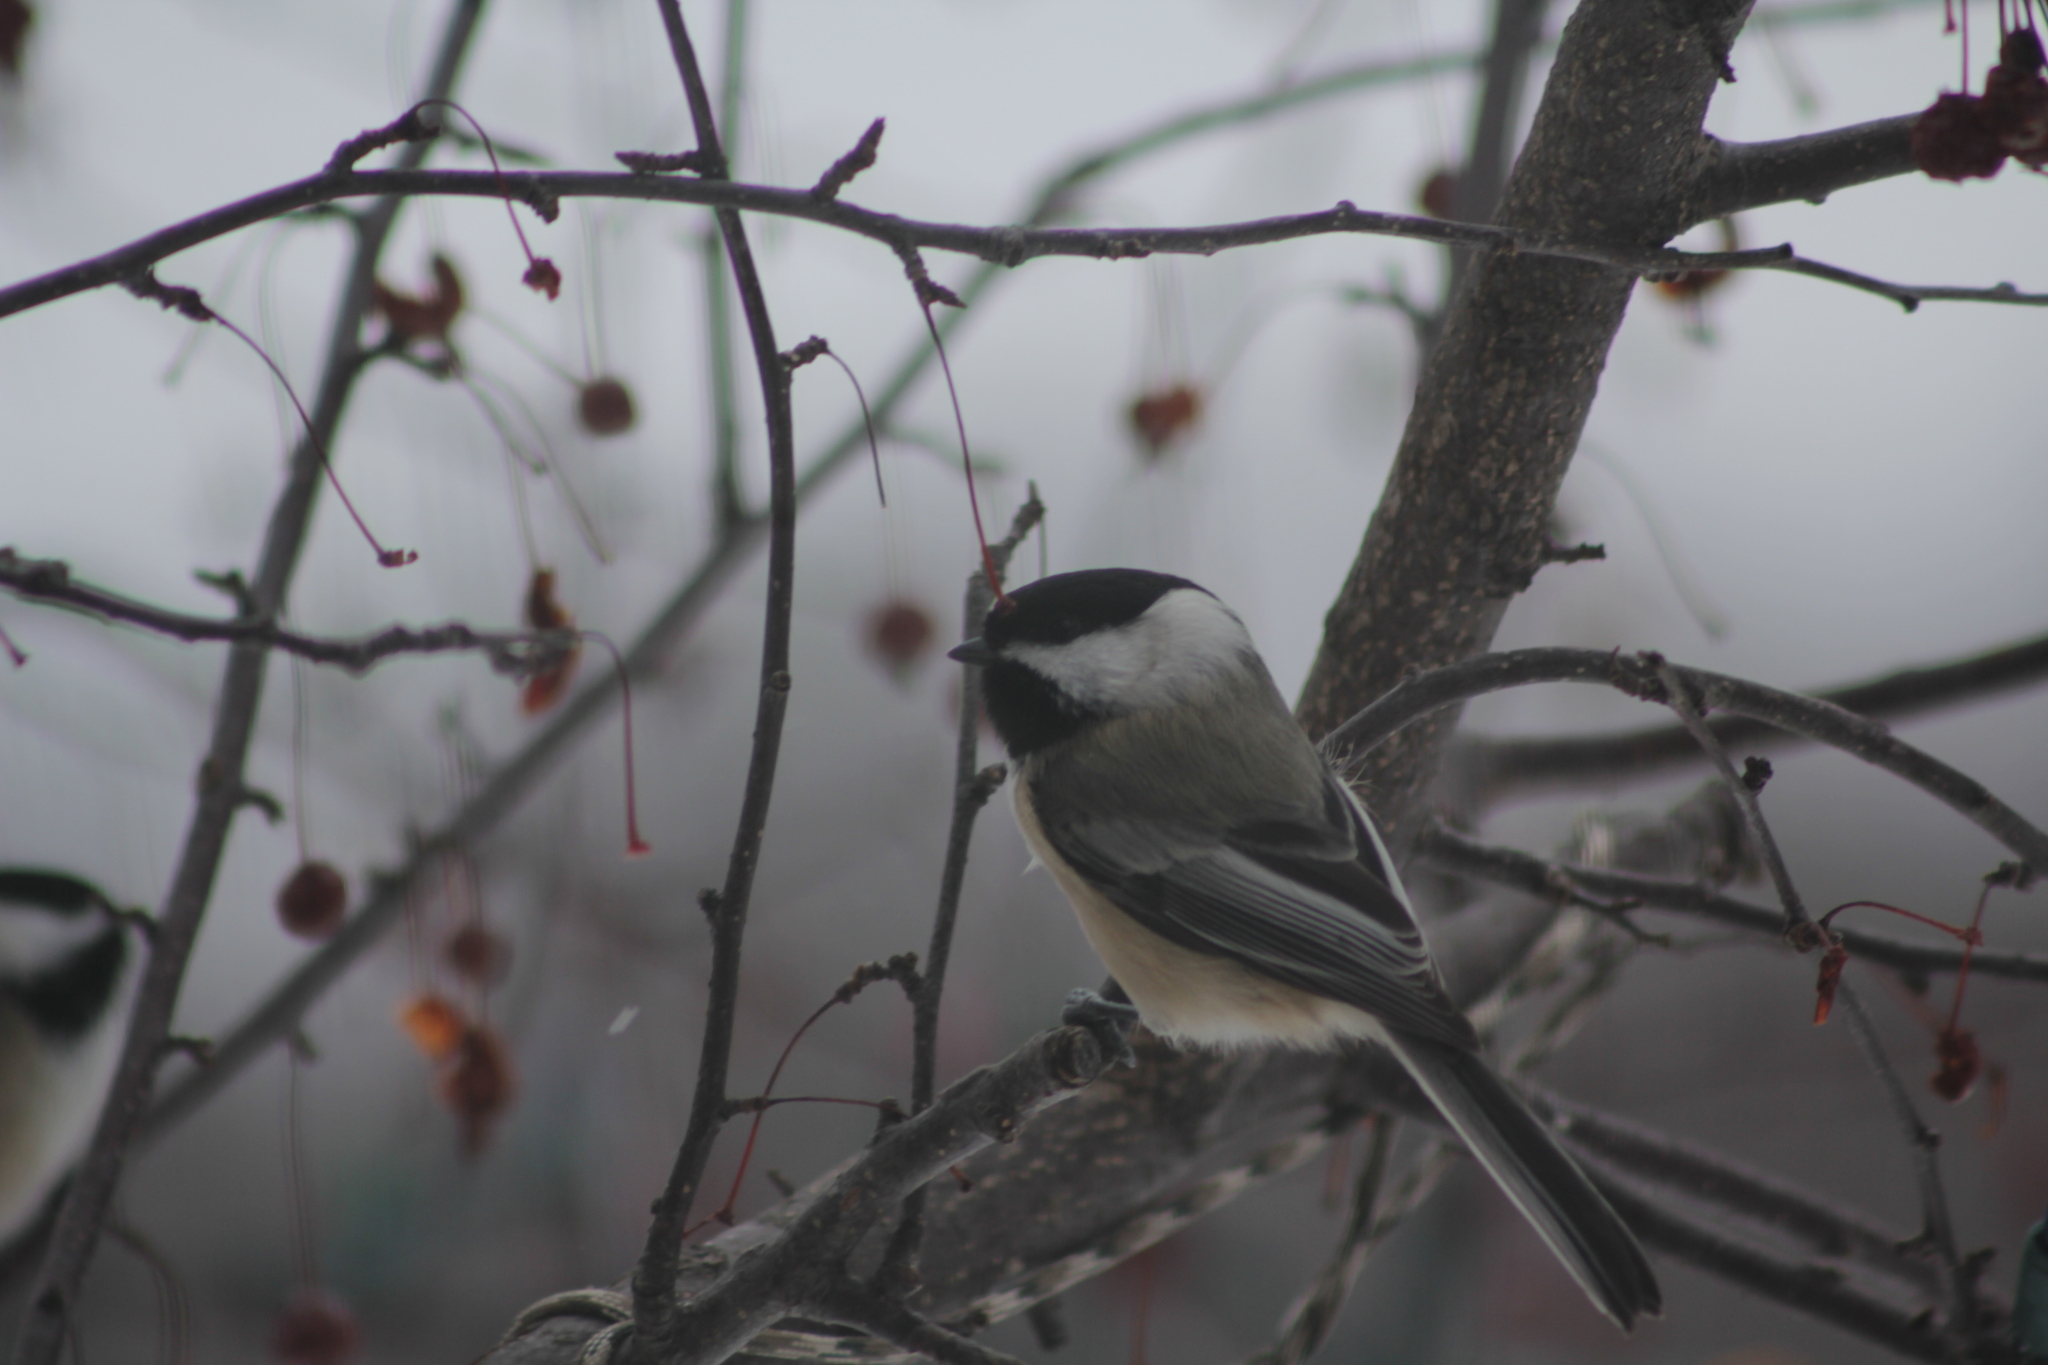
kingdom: Animalia
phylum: Chordata
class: Aves
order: Passeriformes
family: Paridae
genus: Poecile
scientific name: Poecile atricapillus
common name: Black-capped chickadee
